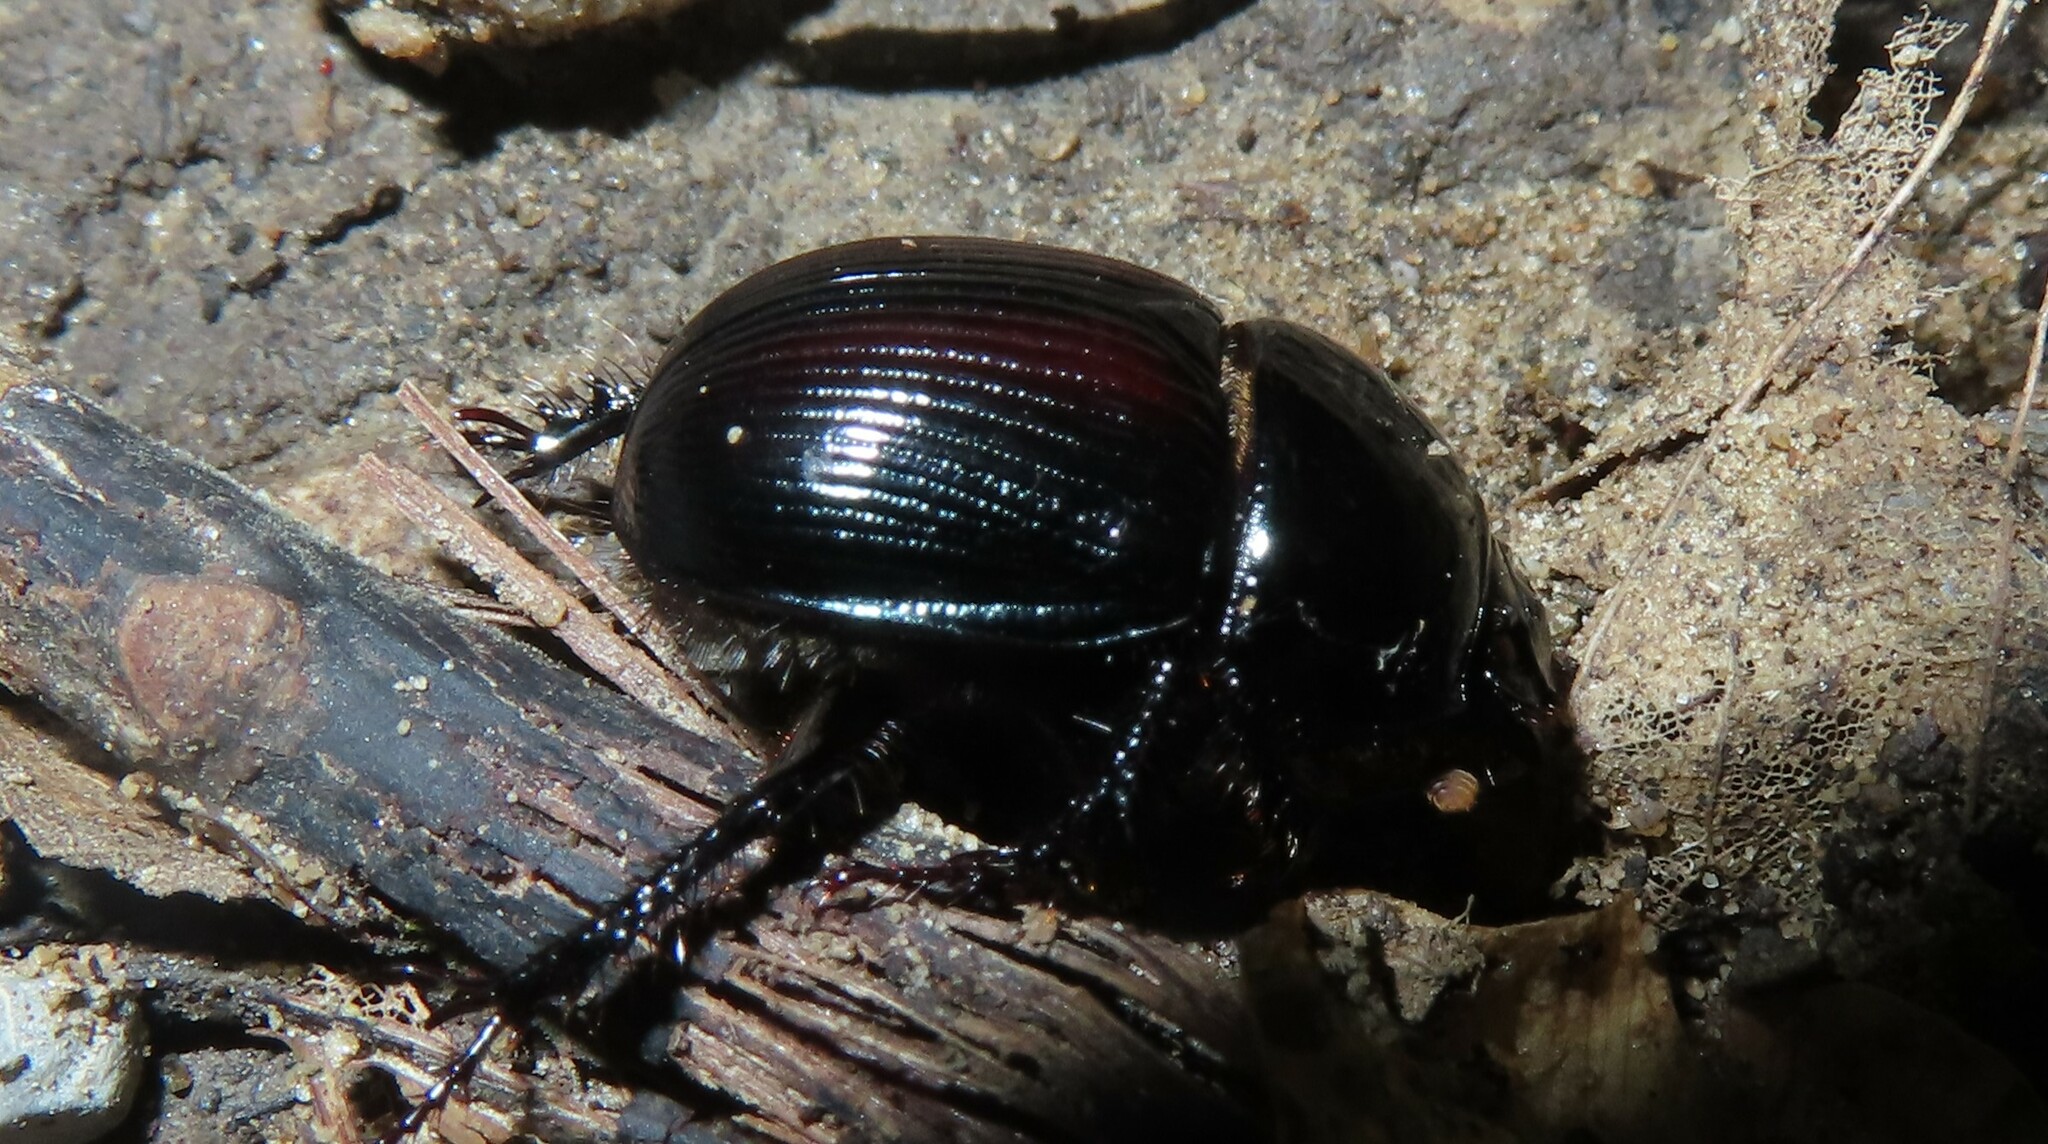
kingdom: Animalia
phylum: Arthropoda
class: Insecta
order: Coleoptera
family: Geotrupidae
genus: Anoplotrupes
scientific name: Anoplotrupes balyi
